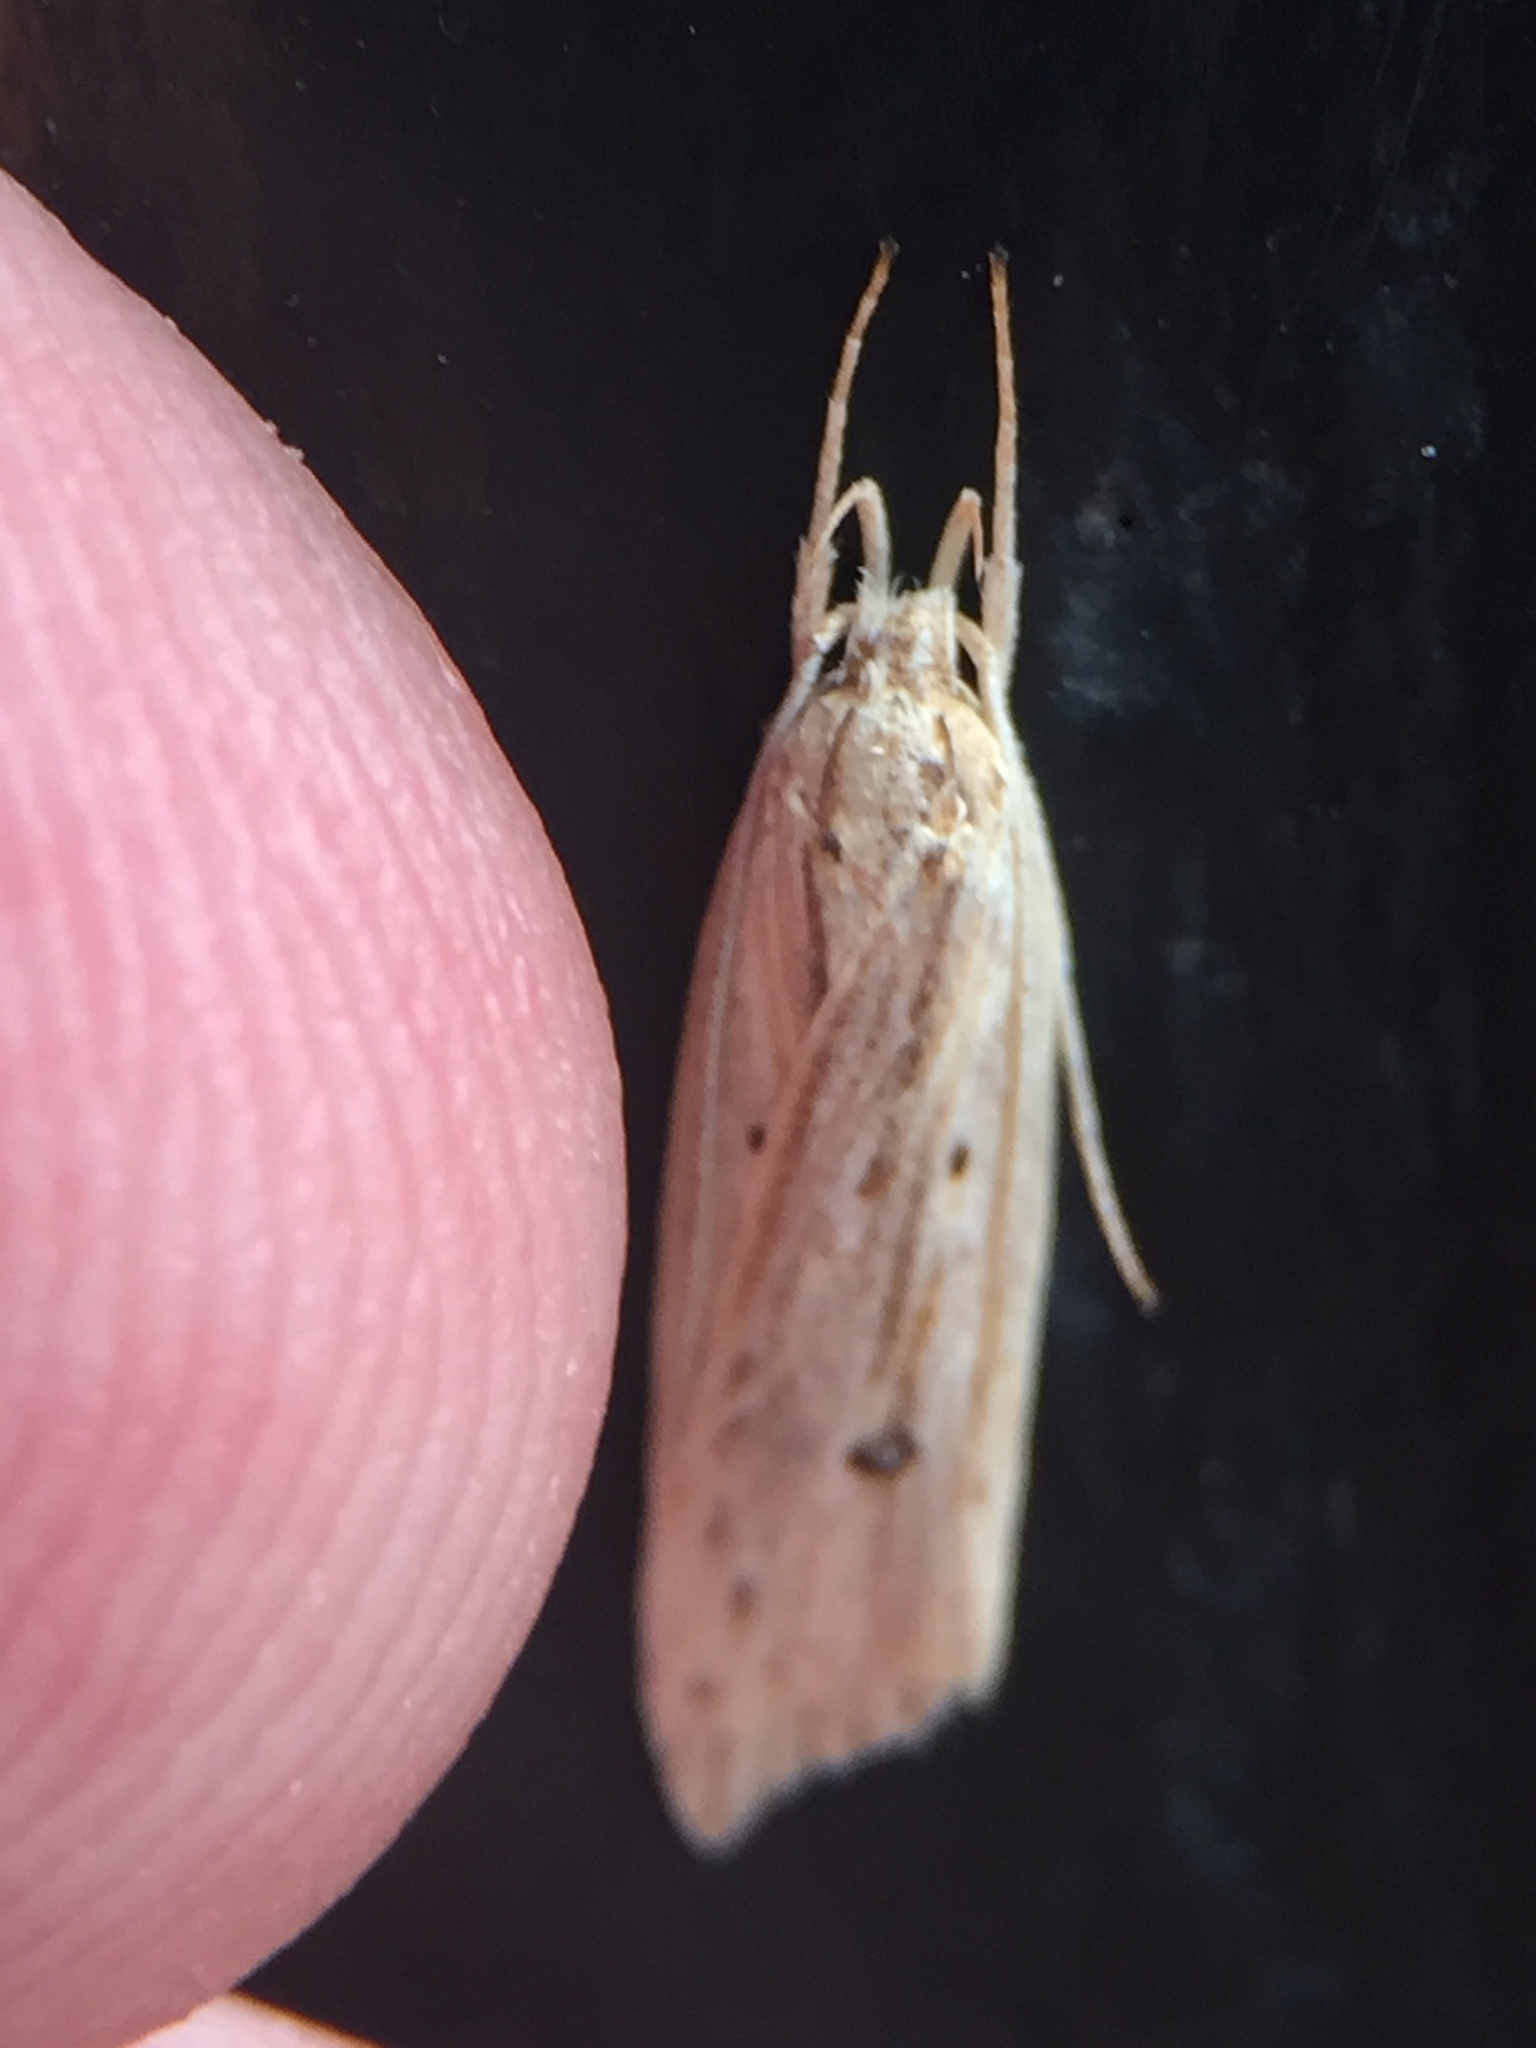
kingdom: Animalia
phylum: Arthropoda
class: Insecta
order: Lepidoptera
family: Xyloryctidae
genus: Donacostola
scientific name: Donacostola notabilis
